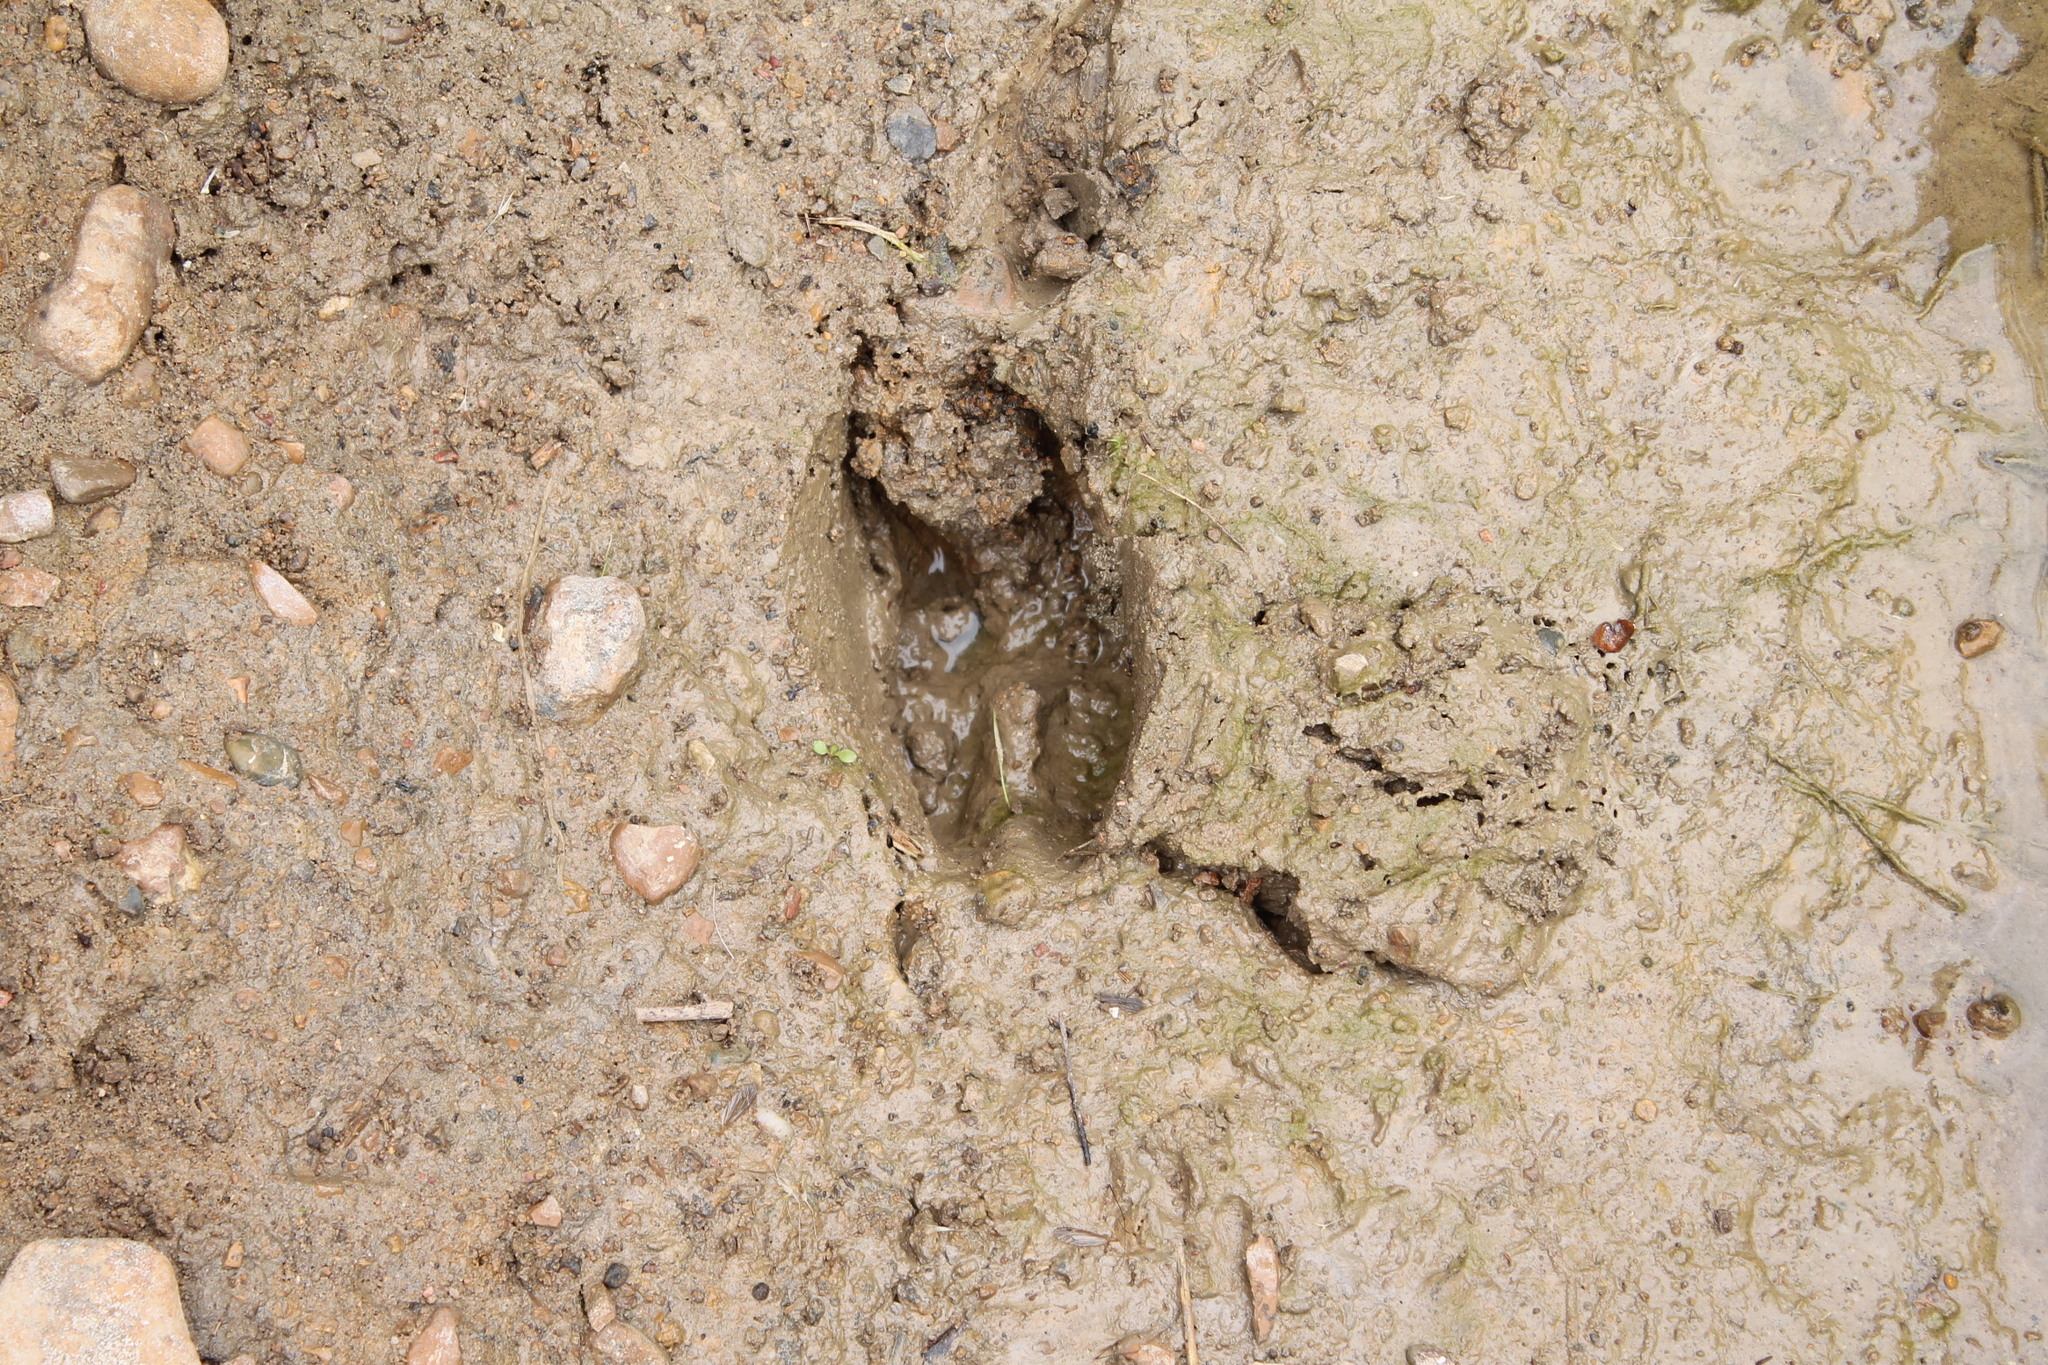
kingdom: Animalia
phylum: Chordata
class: Mammalia
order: Artiodactyla
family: Cervidae
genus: Odocoileus
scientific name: Odocoileus virginianus
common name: White-tailed deer
